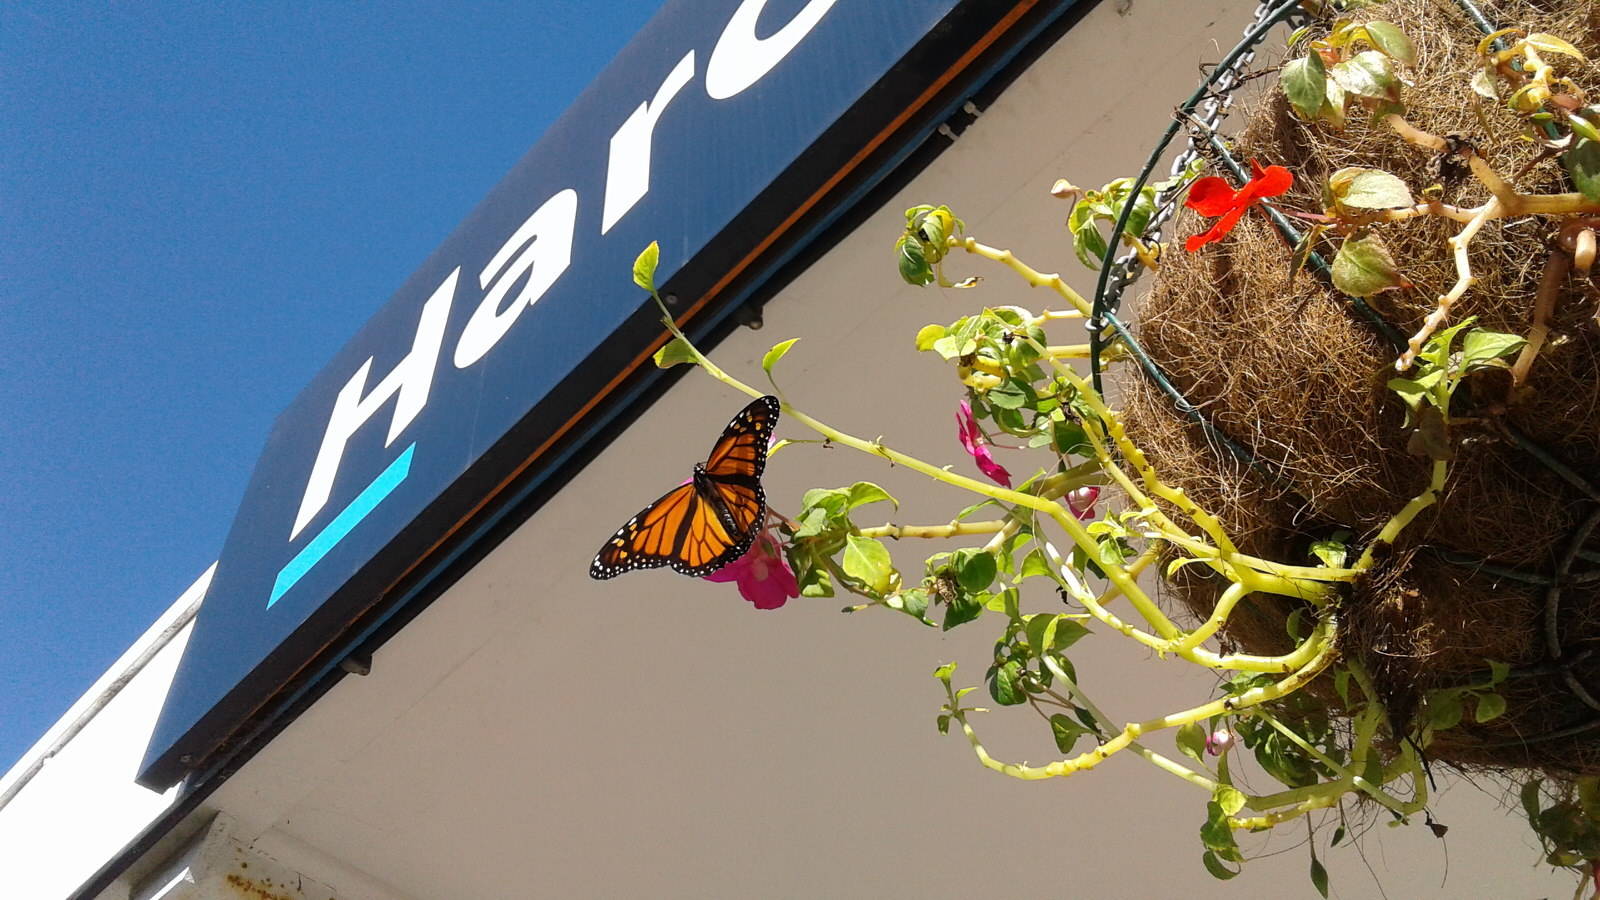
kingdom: Animalia
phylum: Arthropoda
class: Insecta
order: Lepidoptera
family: Nymphalidae
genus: Danaus
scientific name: Danaus plexippus
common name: Monarch
